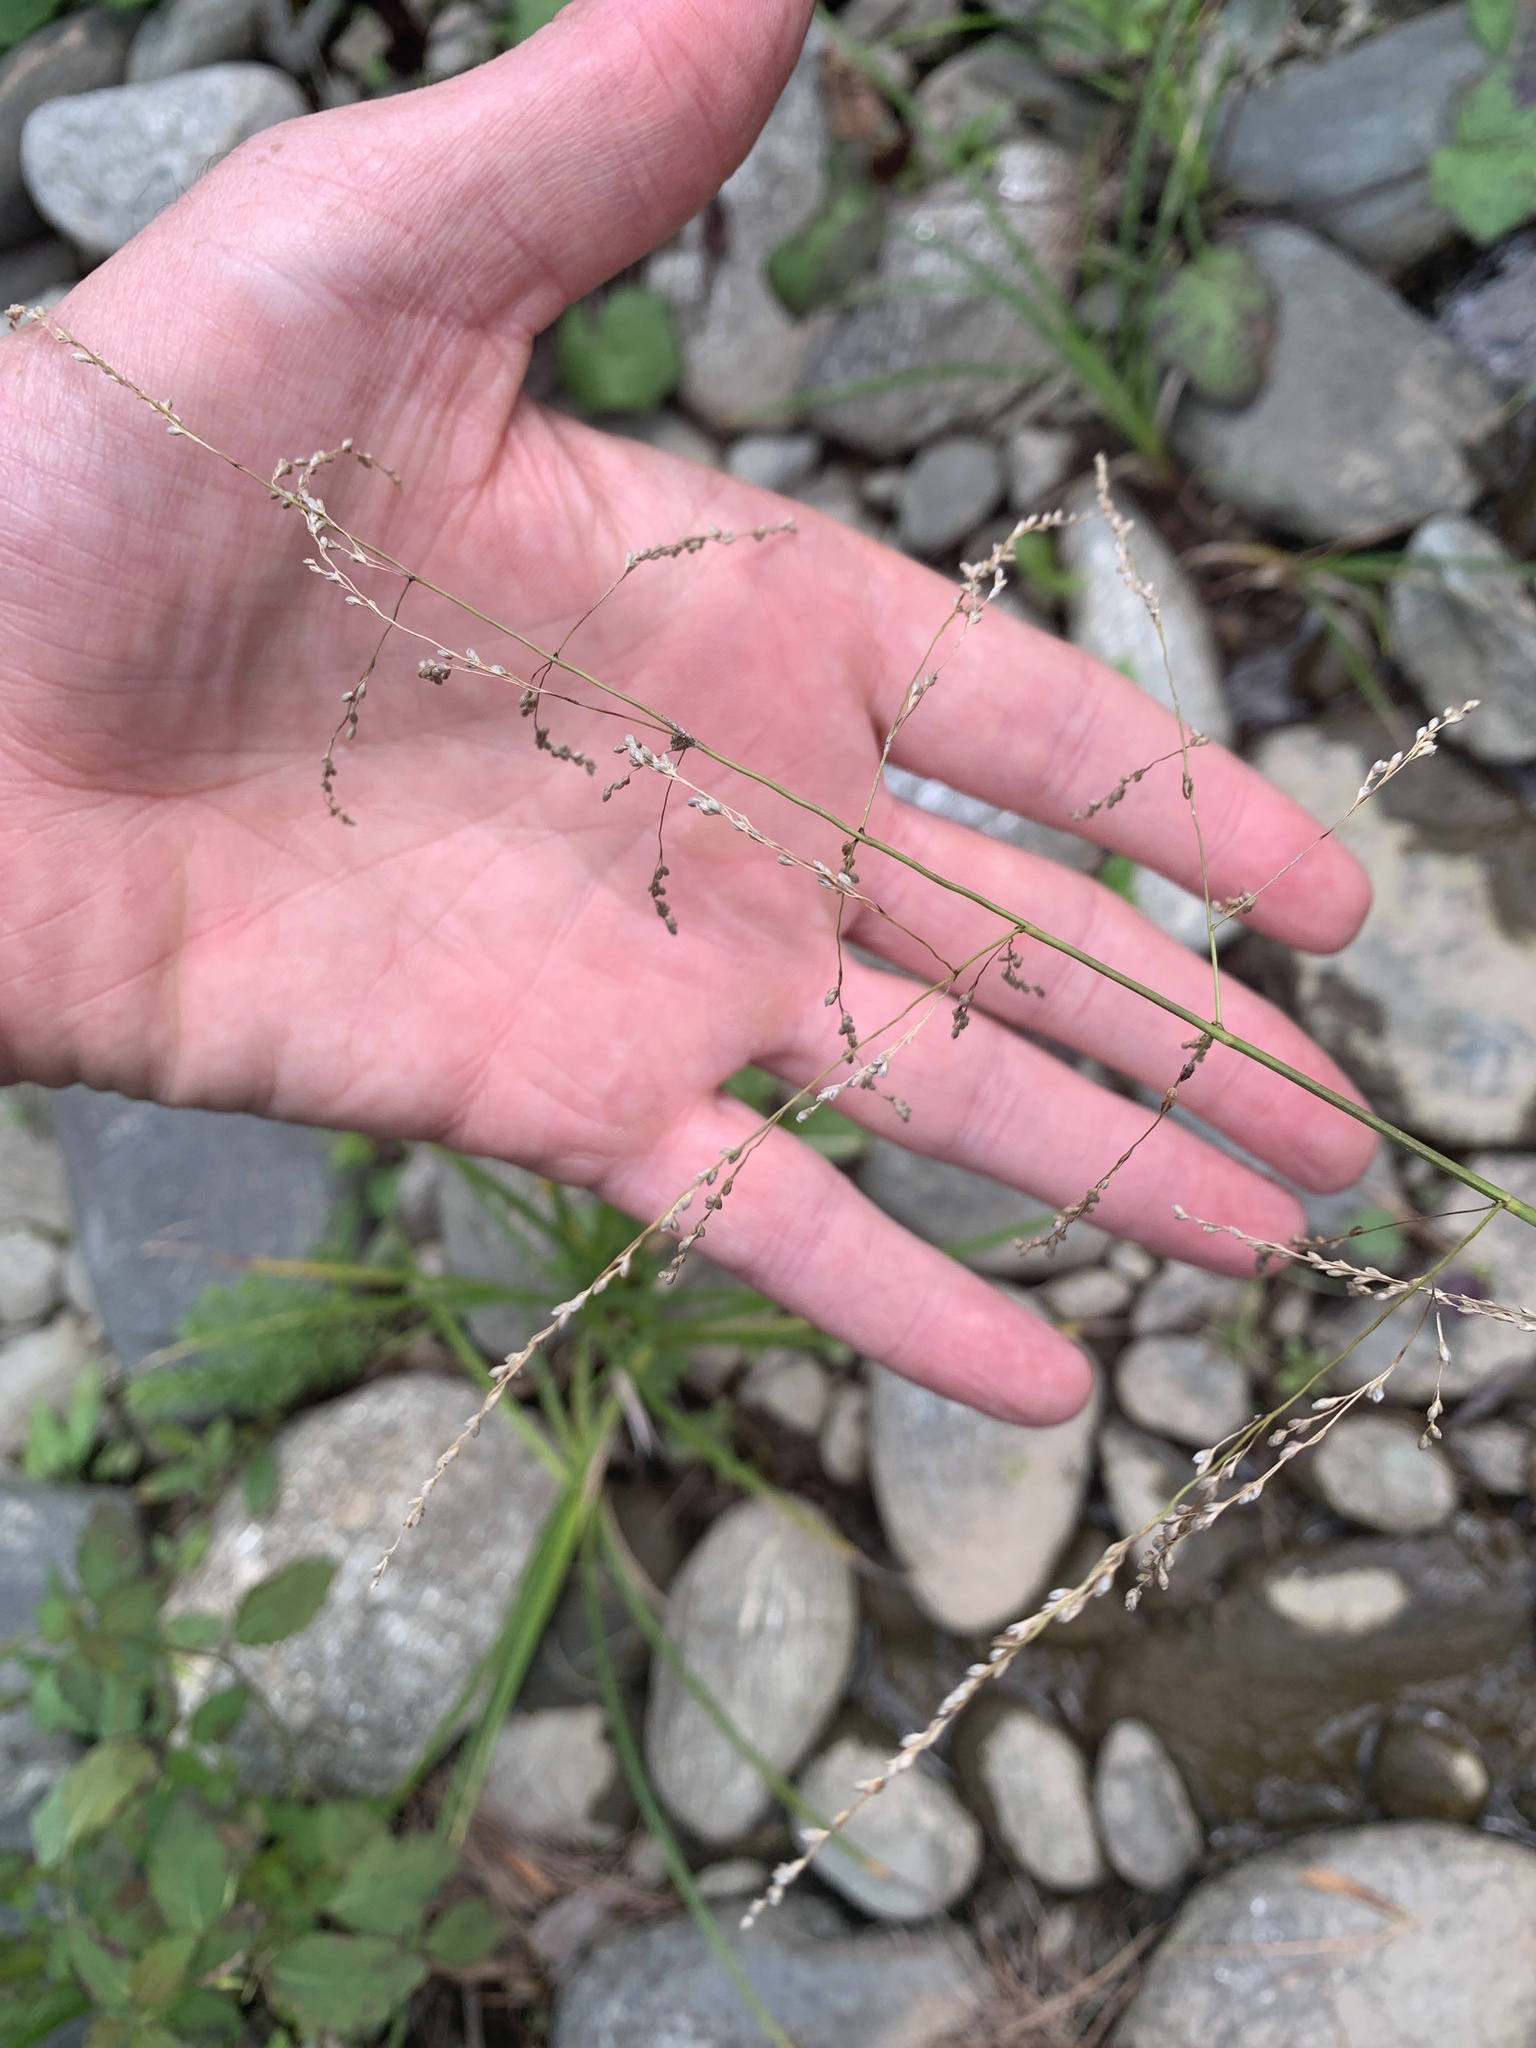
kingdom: Plantae
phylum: Tracheophyta
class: Liliopsida
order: Poales
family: Poaceae
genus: Glyceria
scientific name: Glyceria striata
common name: Fowl manna grass
